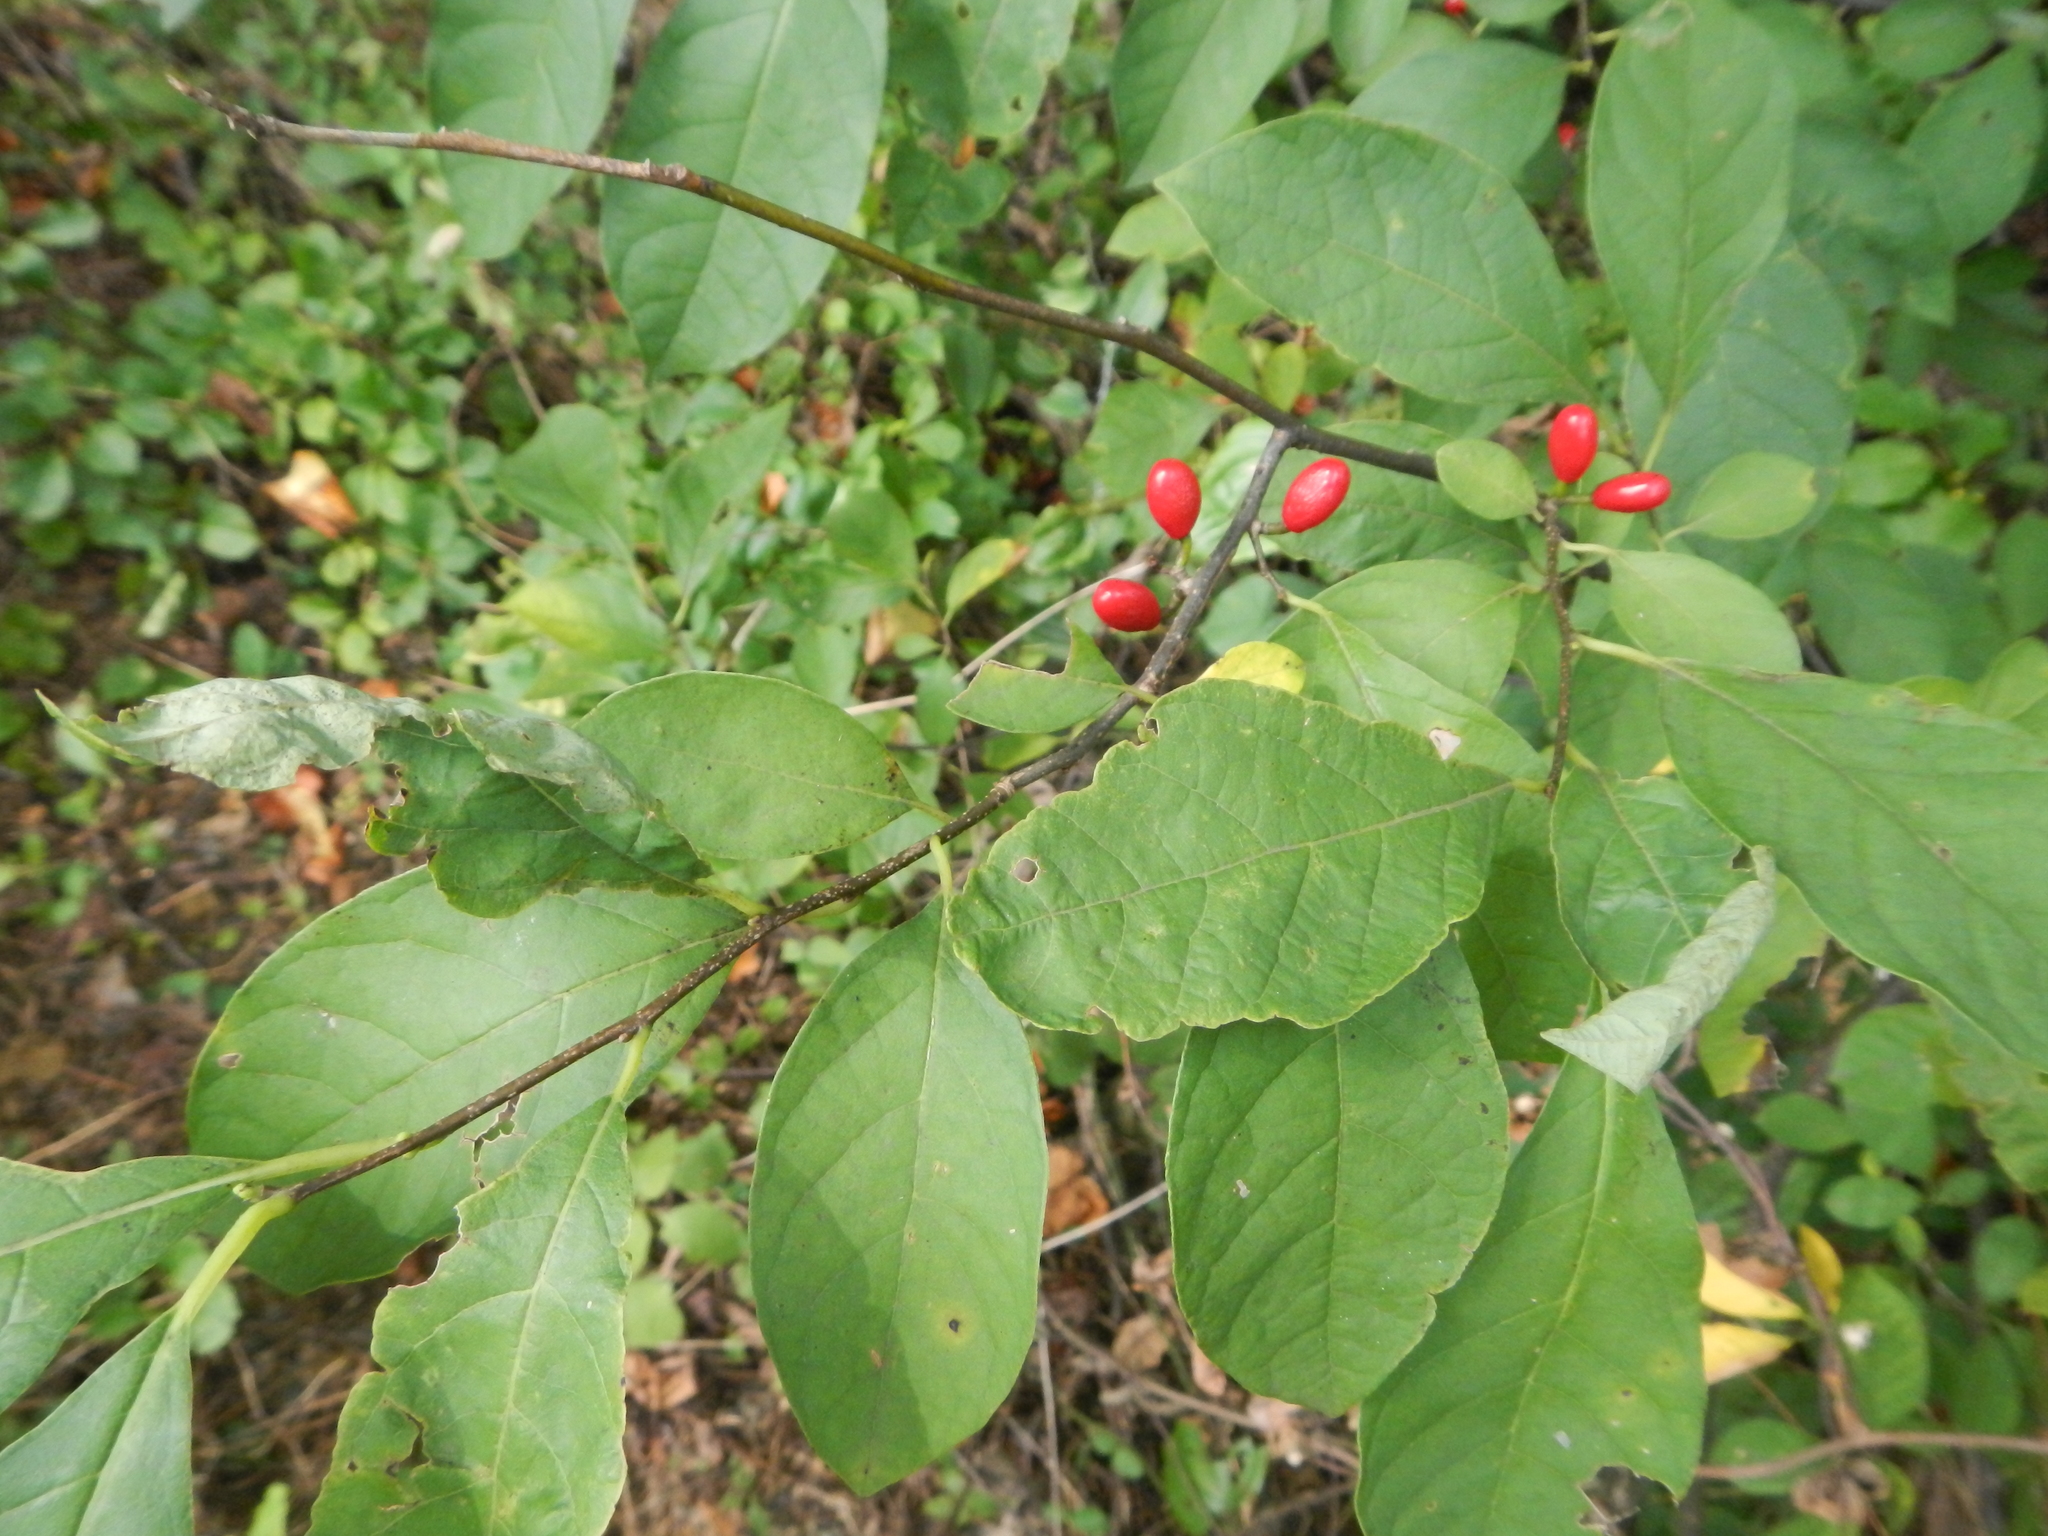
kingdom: Plantae
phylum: Tracheophyta
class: Magnoliopsida
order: Laurales
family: Lauraceae
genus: Lindera
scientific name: Lindera benzoin
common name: Spicebush
